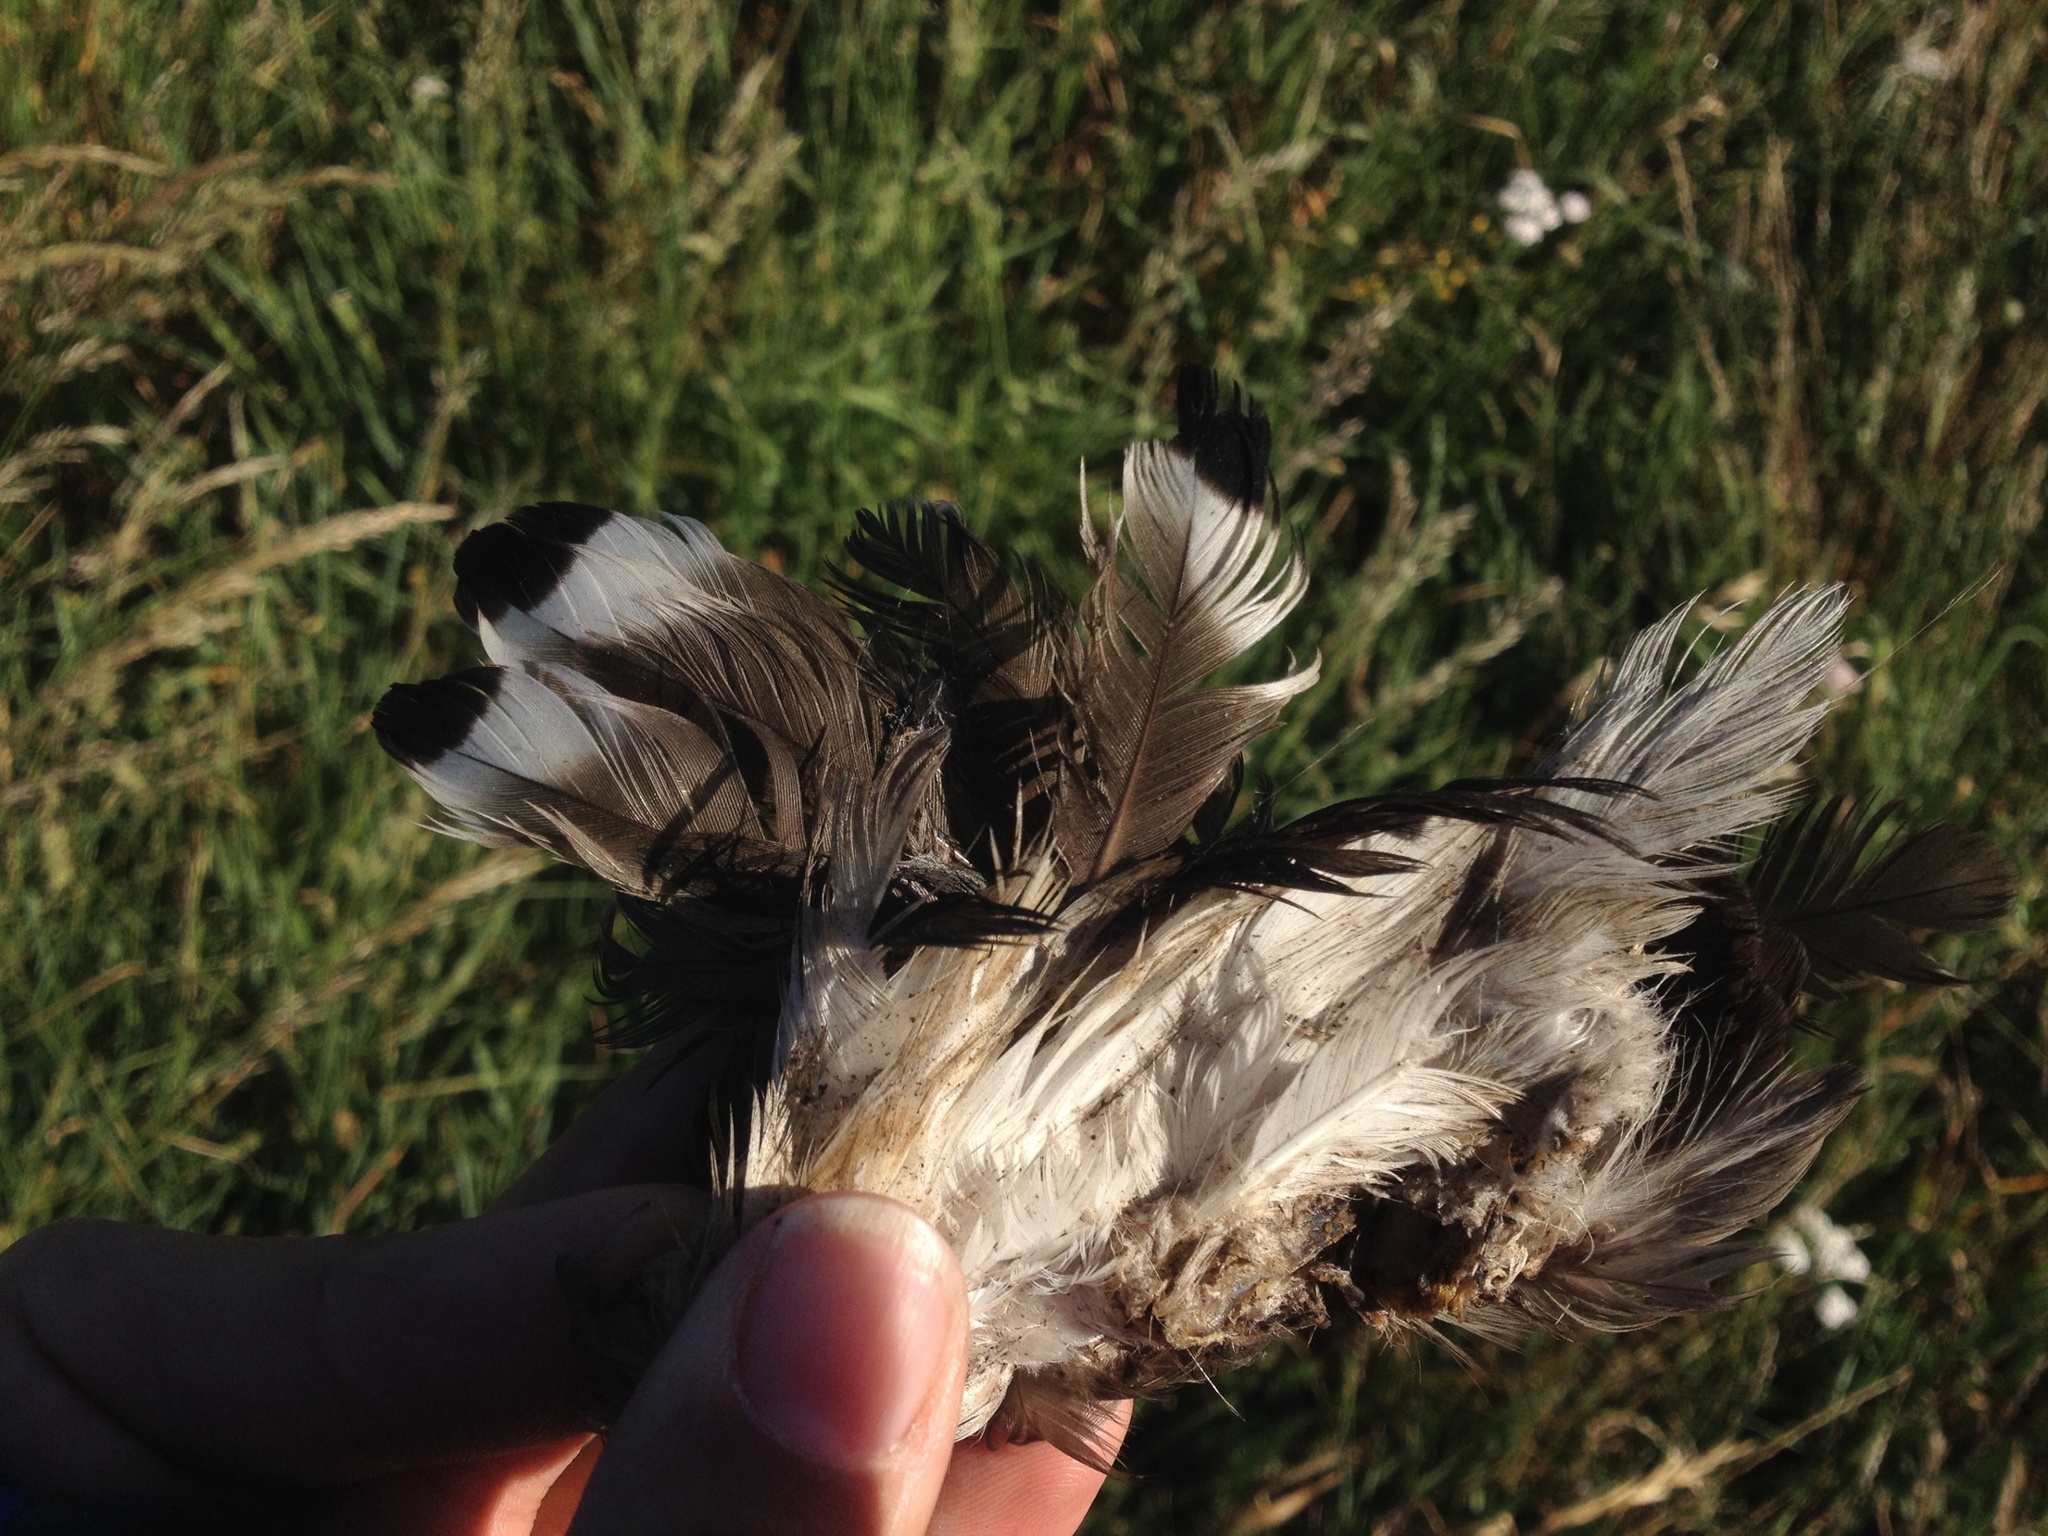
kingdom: Animalia
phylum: Chordata
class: Aves
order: Anseriformes
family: Anatidae
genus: Anas
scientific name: Anas platyrhynchos
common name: Mallard
